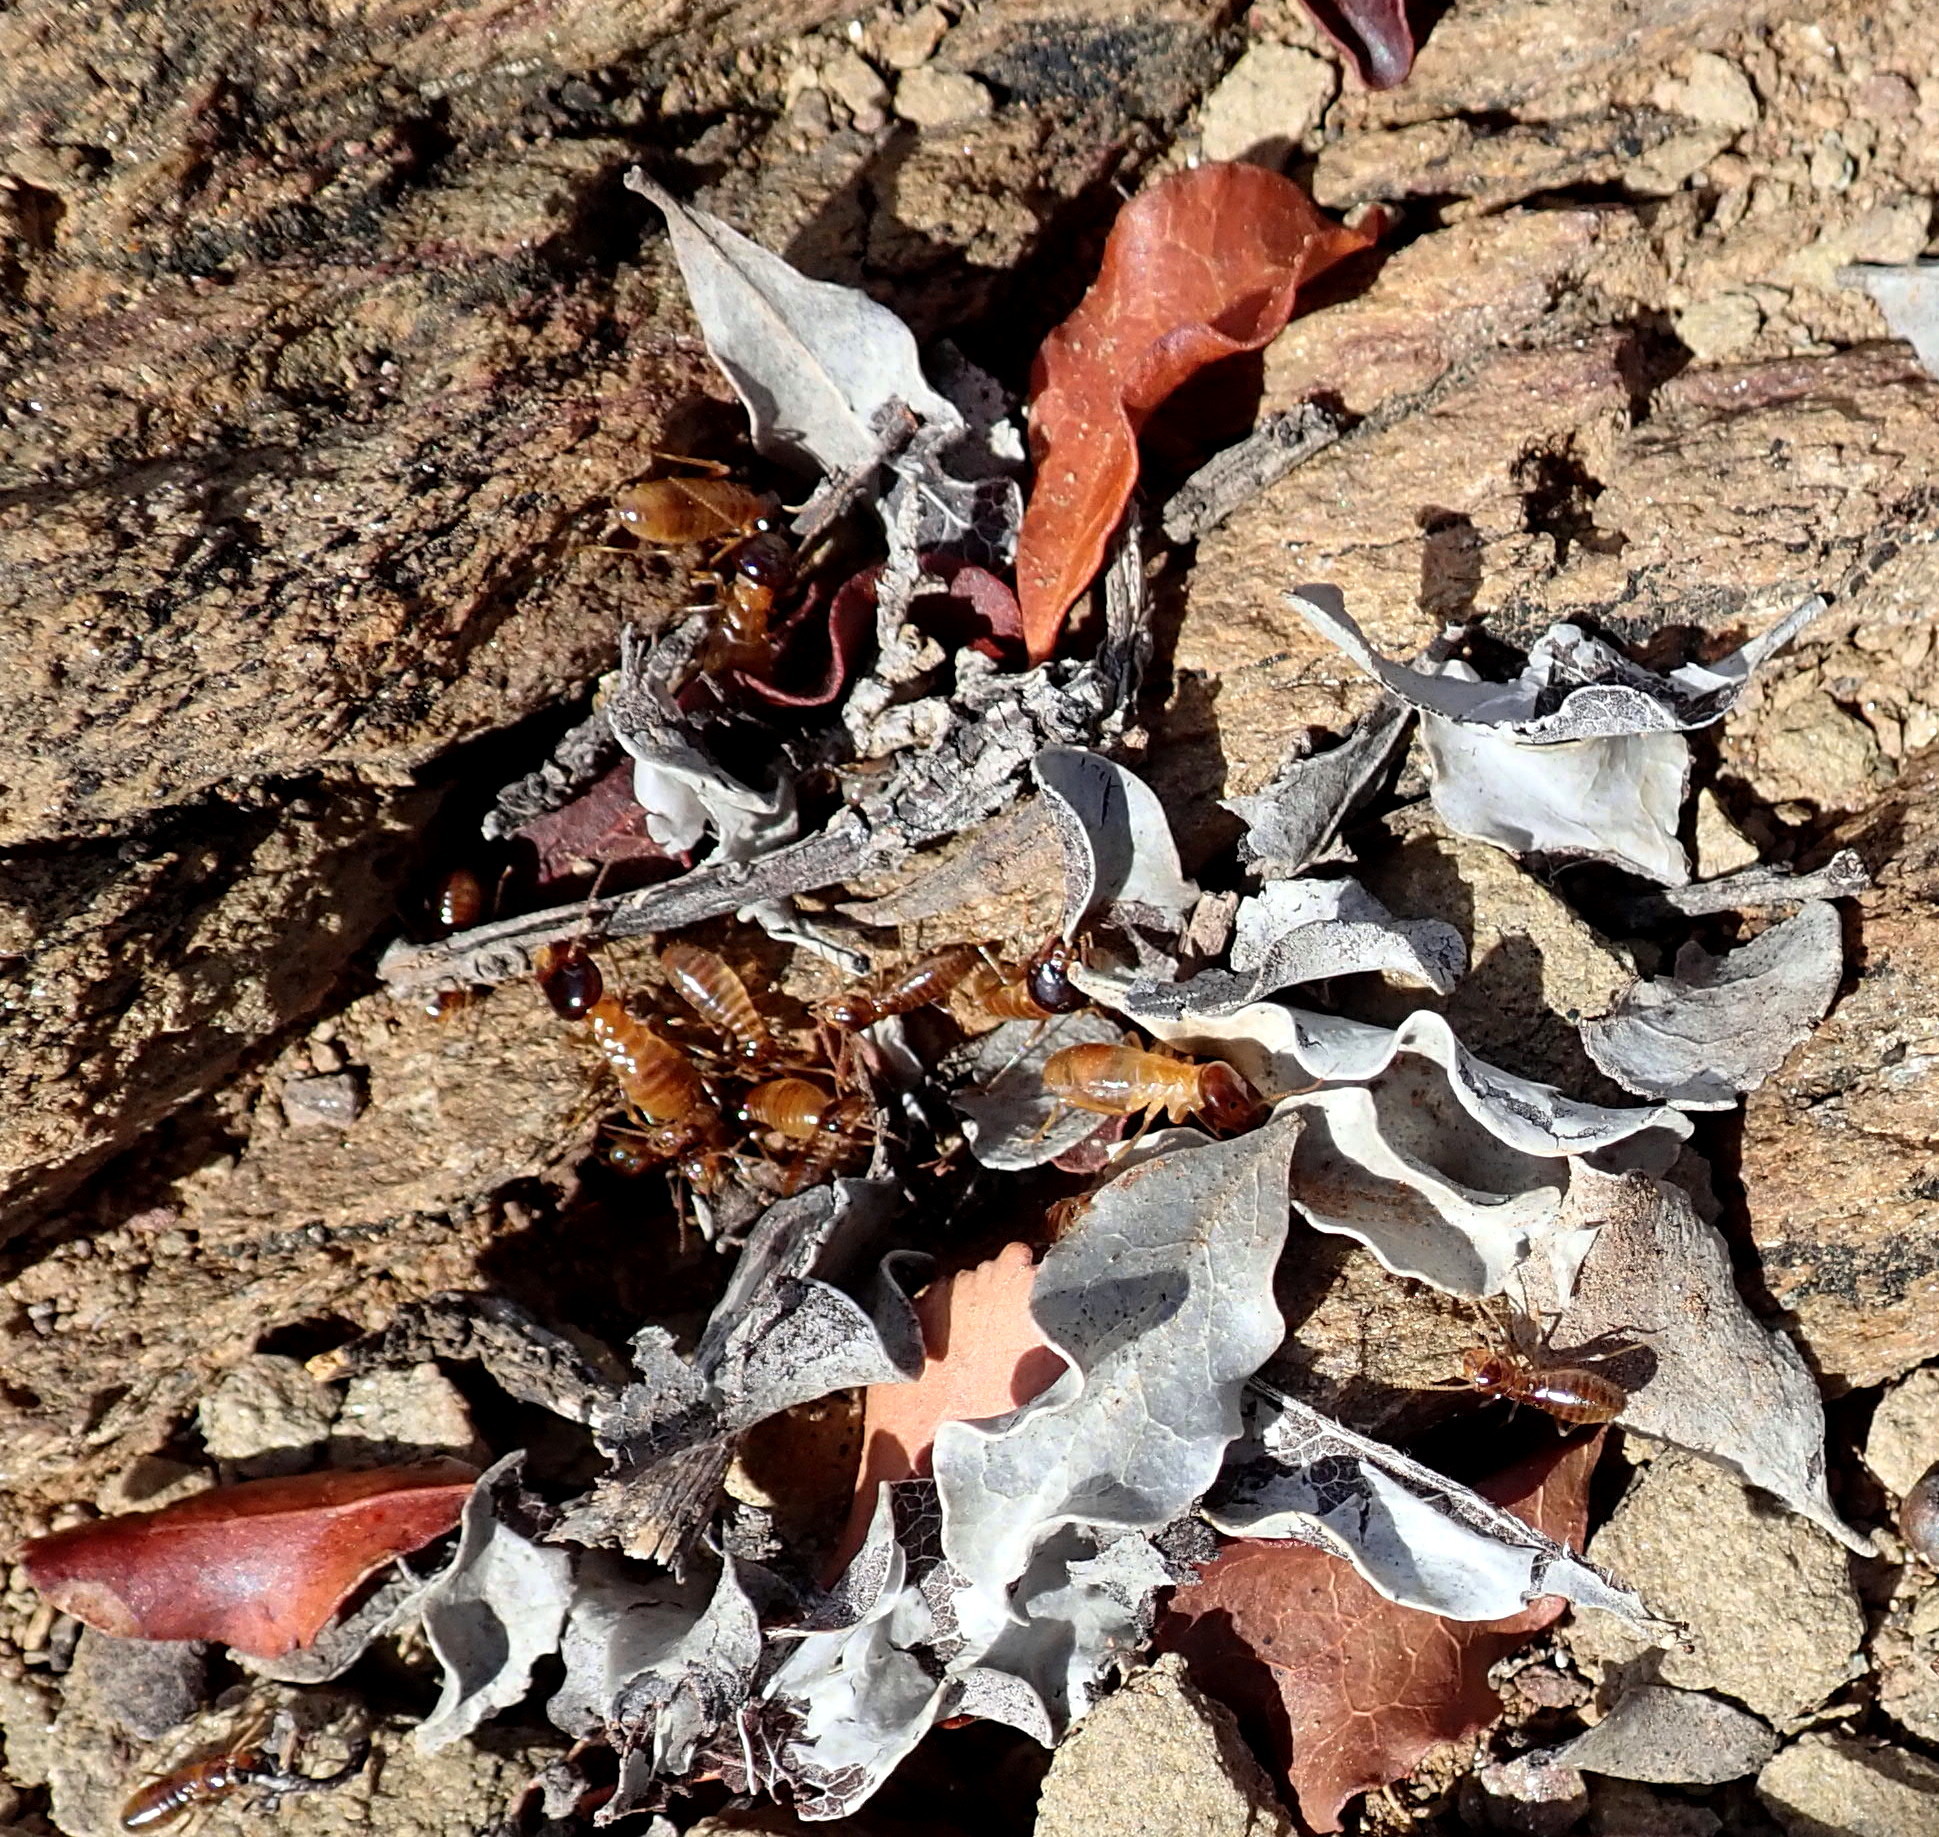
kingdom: Animalia
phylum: Arthropoda
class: Insecta
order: Blattodea
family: Hodotermitidae
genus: Microhodotermes
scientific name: Microhodotermes viator
